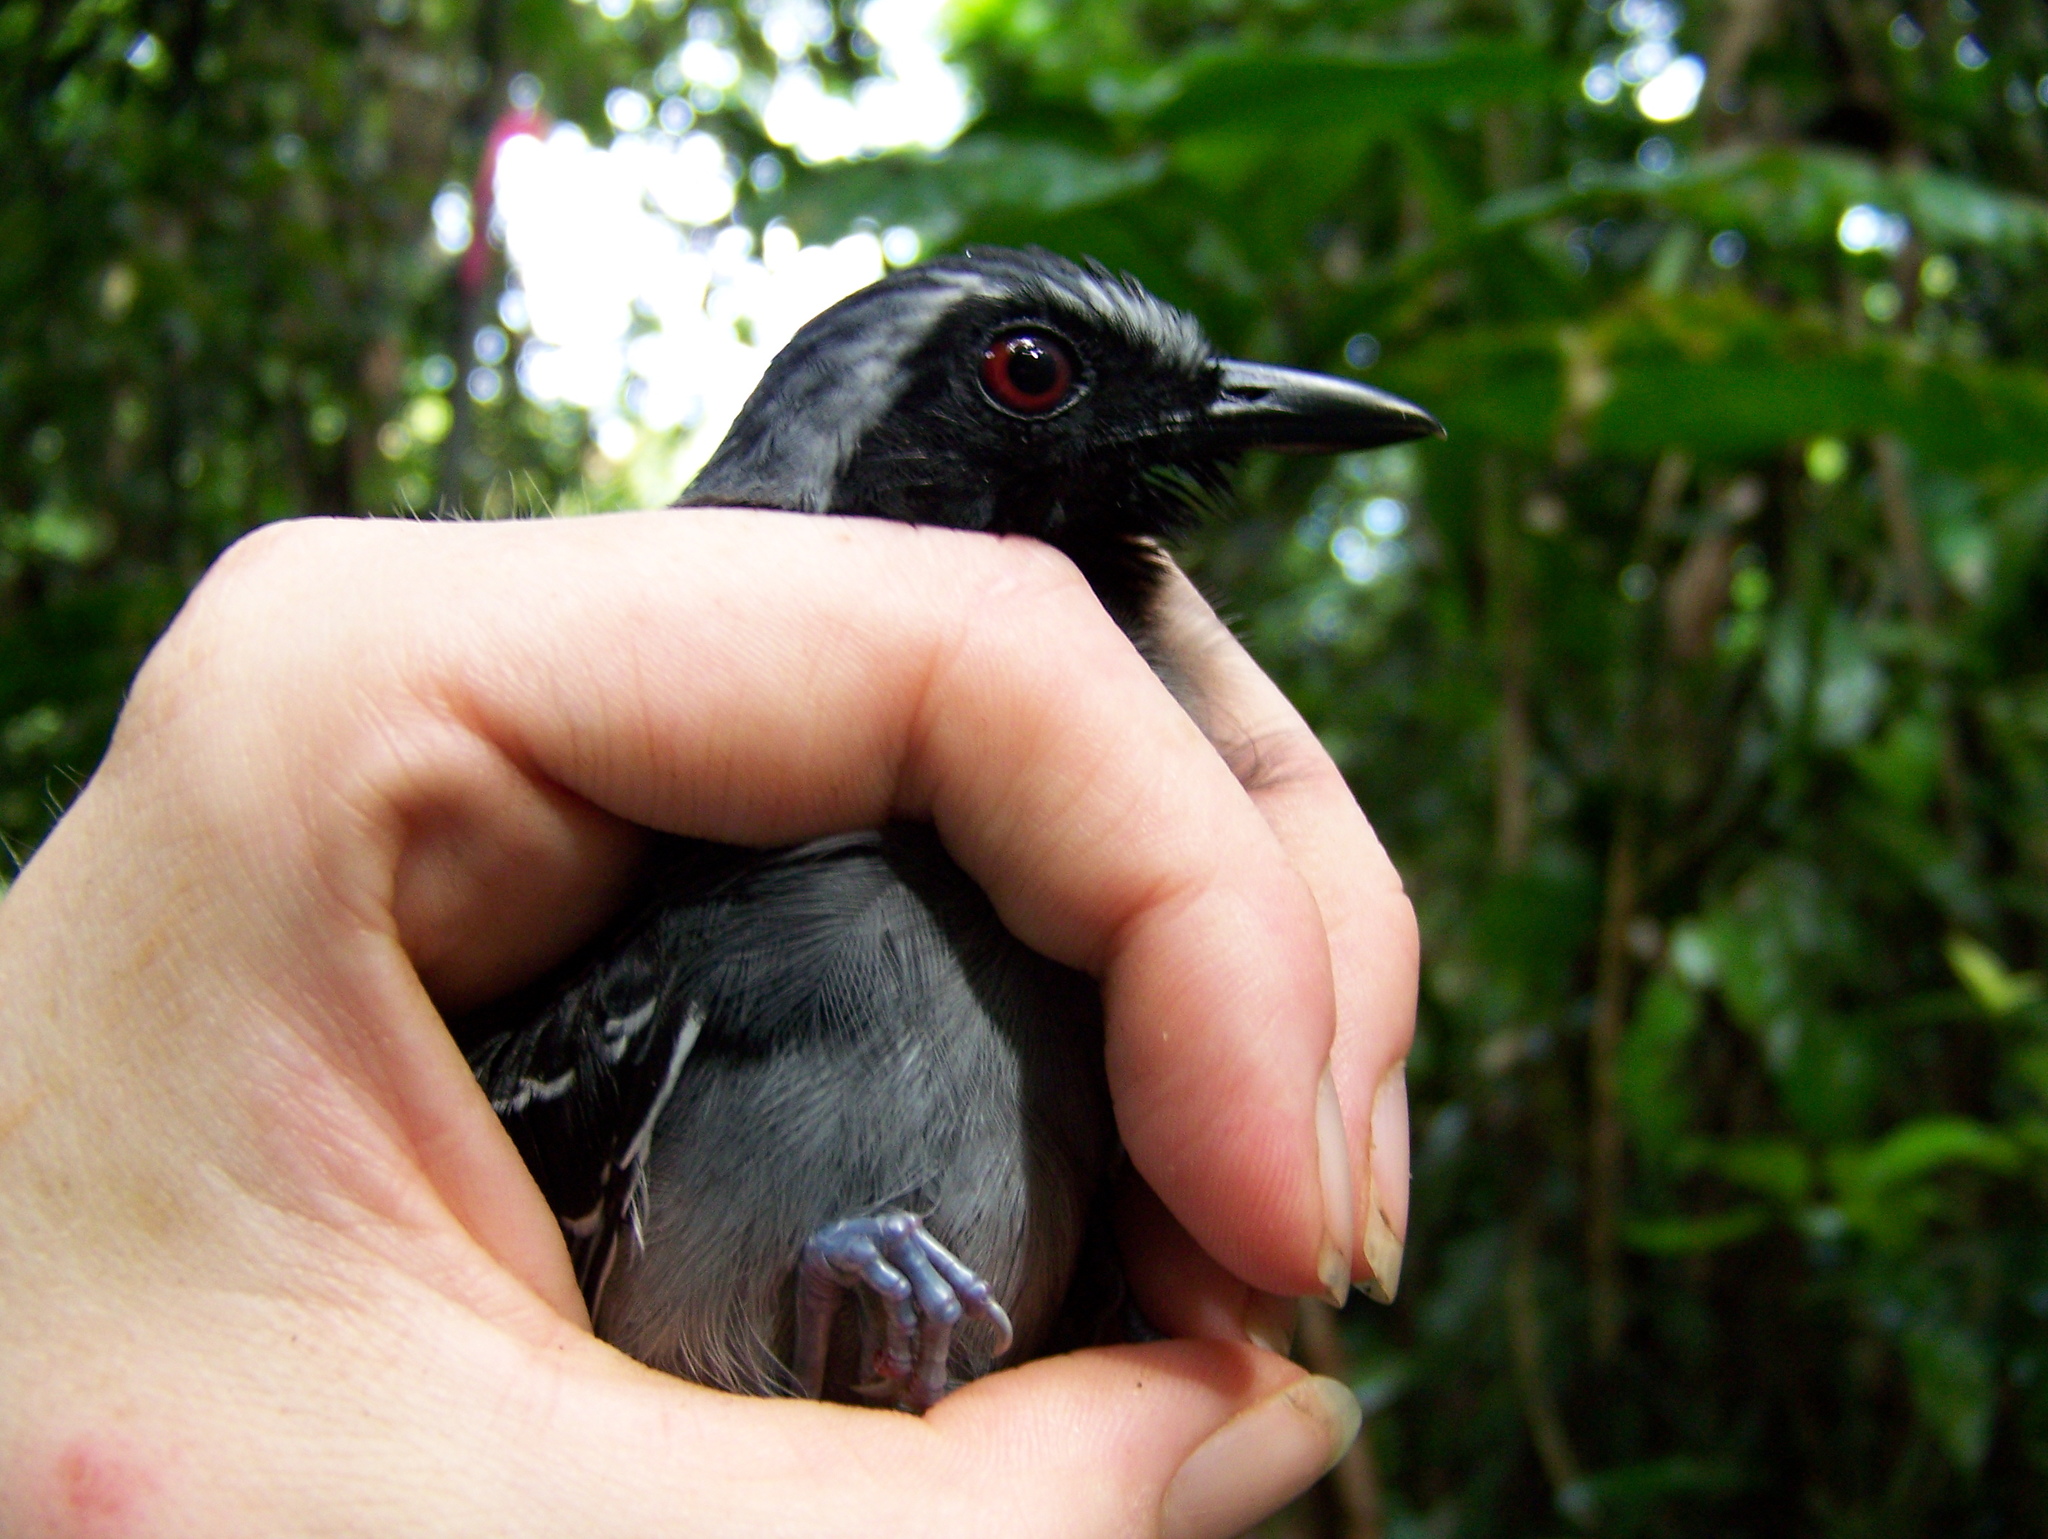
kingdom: Animalia
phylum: Chordata
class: Aves
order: Passeriformes
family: Thamnophilidae
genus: Myrmoborus
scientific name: Myrmoborus myotherinus
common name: Black-faced antbird
